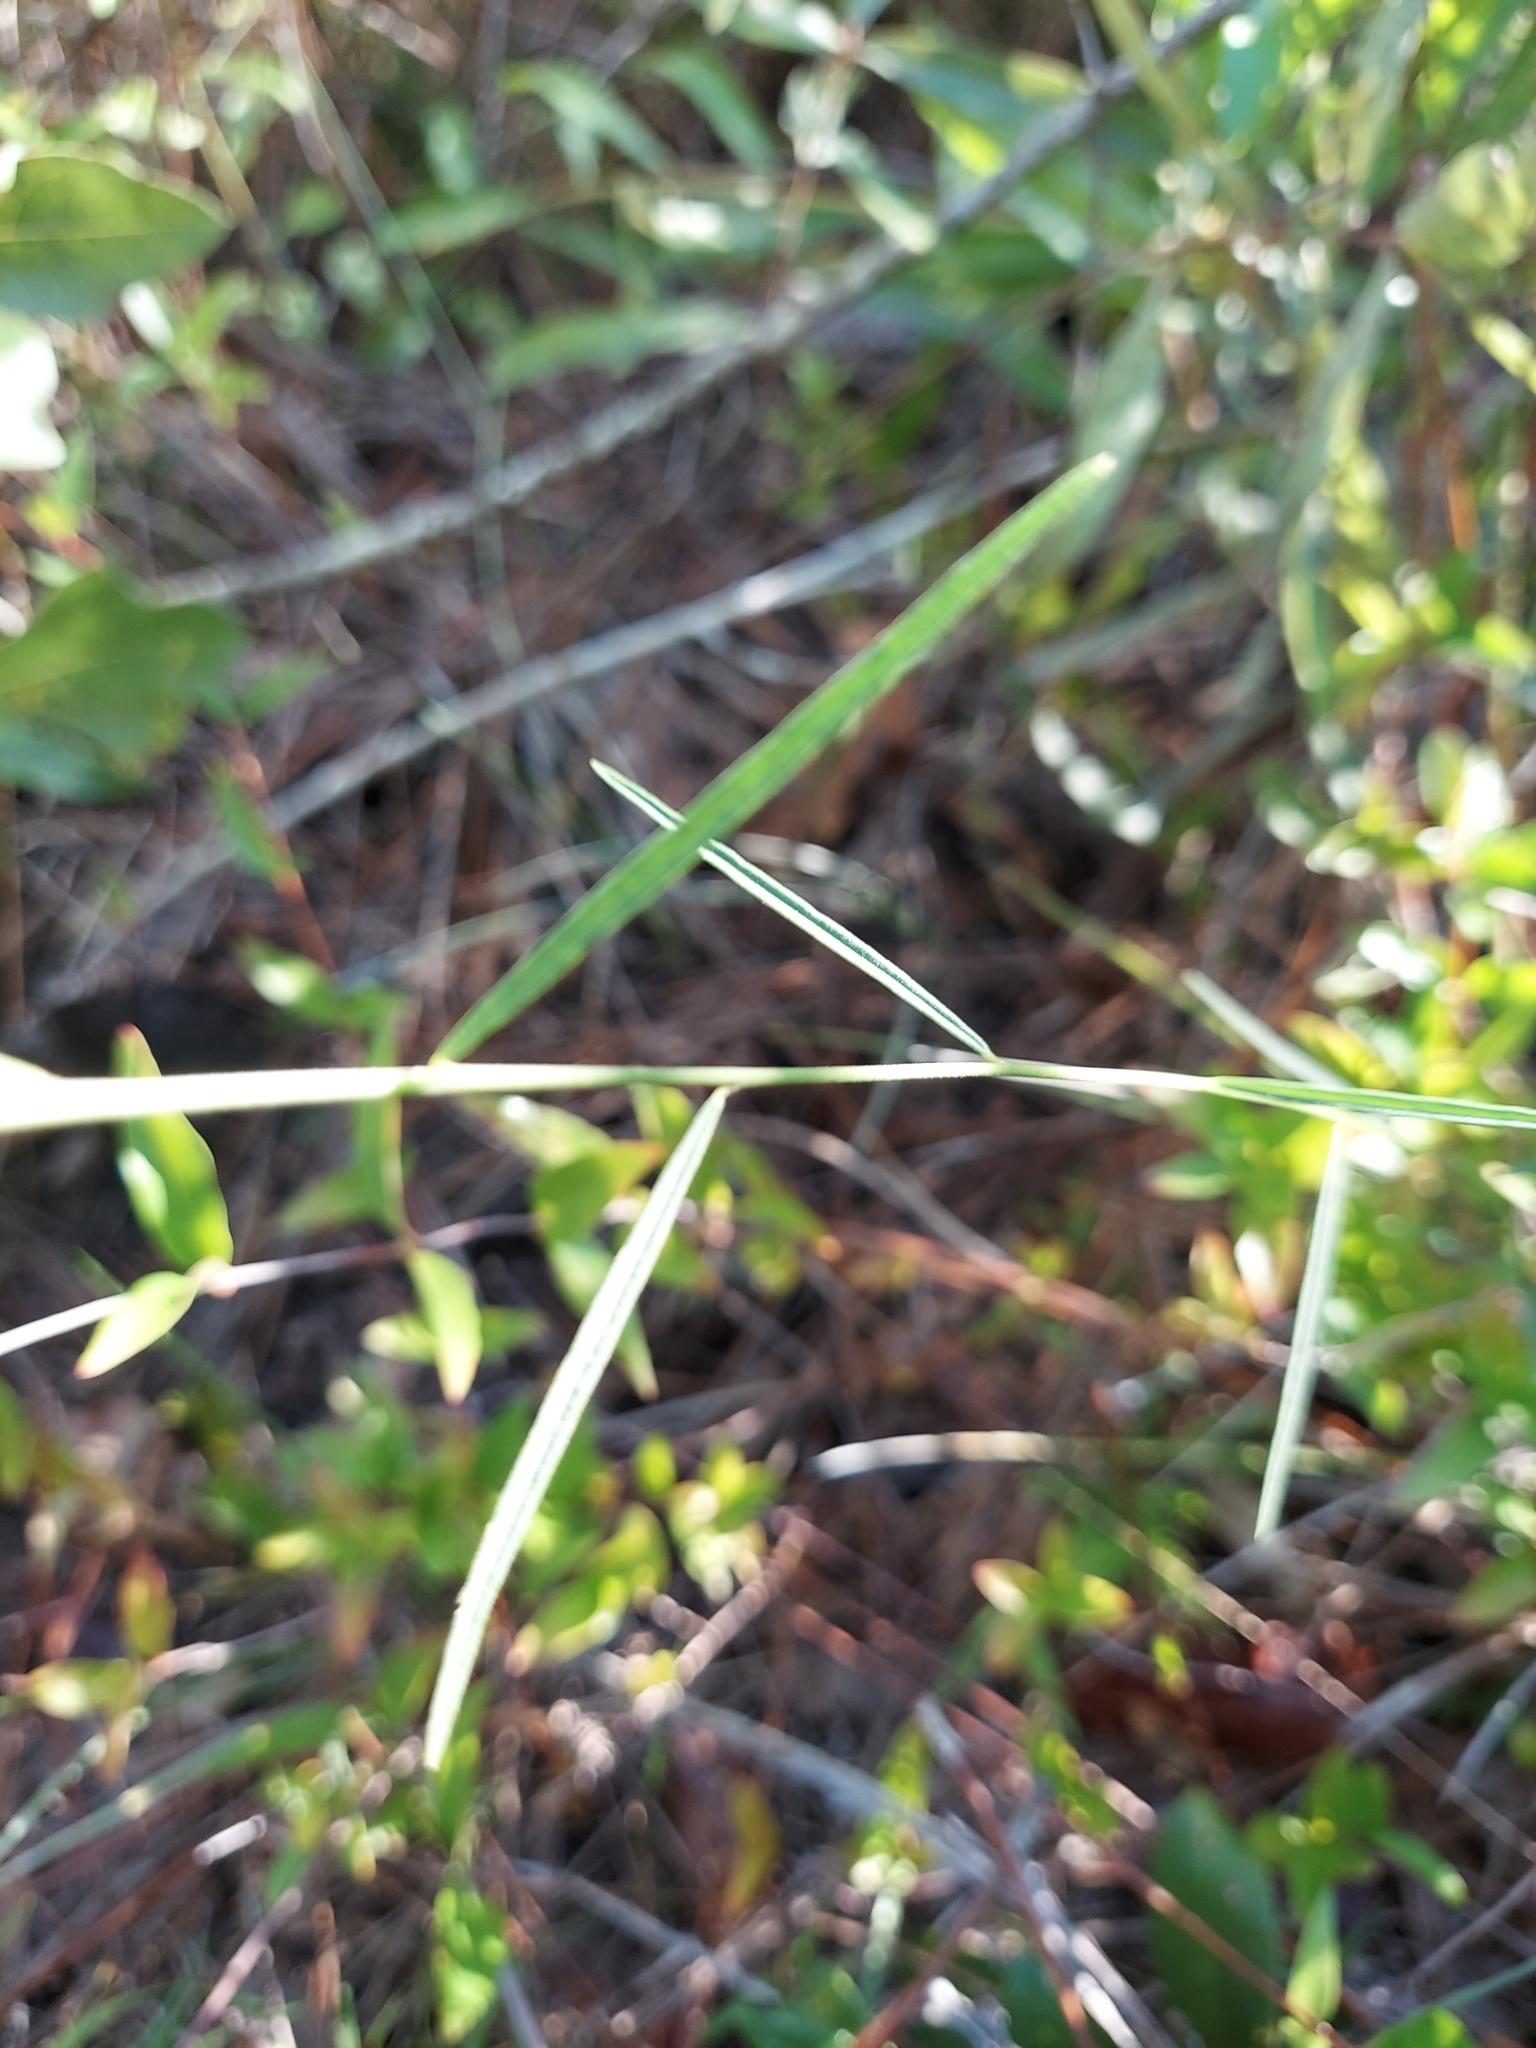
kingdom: Plantae
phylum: Tracheophyta
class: Magnoliopsida
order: Fabales
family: Polygalaceae
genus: Asemeia
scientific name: Asemeia grandiflora
